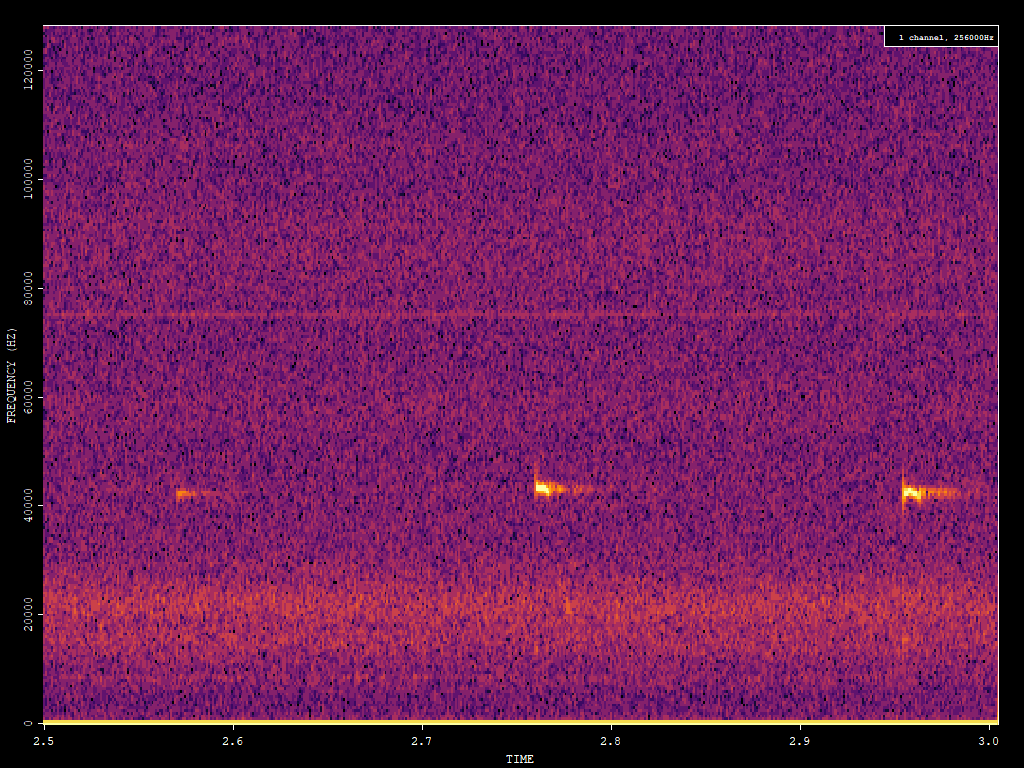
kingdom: Animalia
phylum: Chordata
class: Mammalia
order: Chiroptera
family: Vespertilionidae
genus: Pipistrellus
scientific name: Pipistrellus pipistrellus
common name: Common pipistrelle
